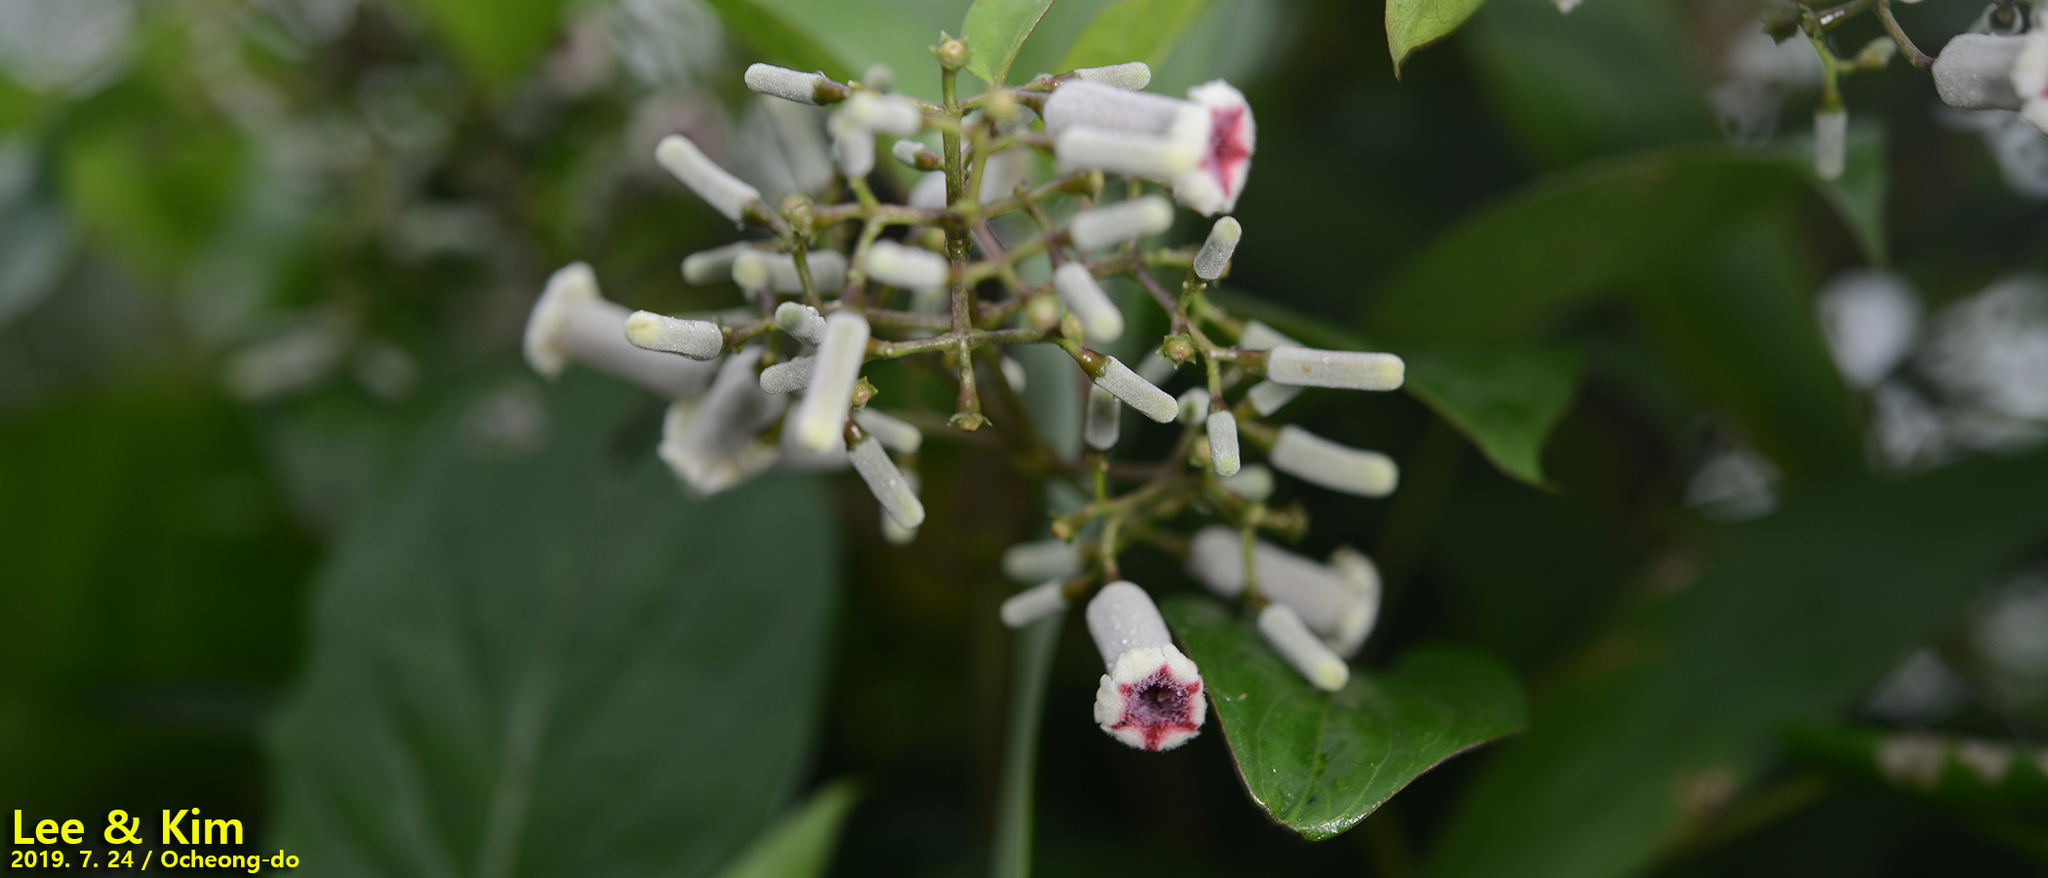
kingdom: Plantae
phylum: Tracheophyta
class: Magnoliopsida
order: Gentianales
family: Rubiaceae
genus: Paederia
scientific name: Paederia foetida
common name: Stinkvine
